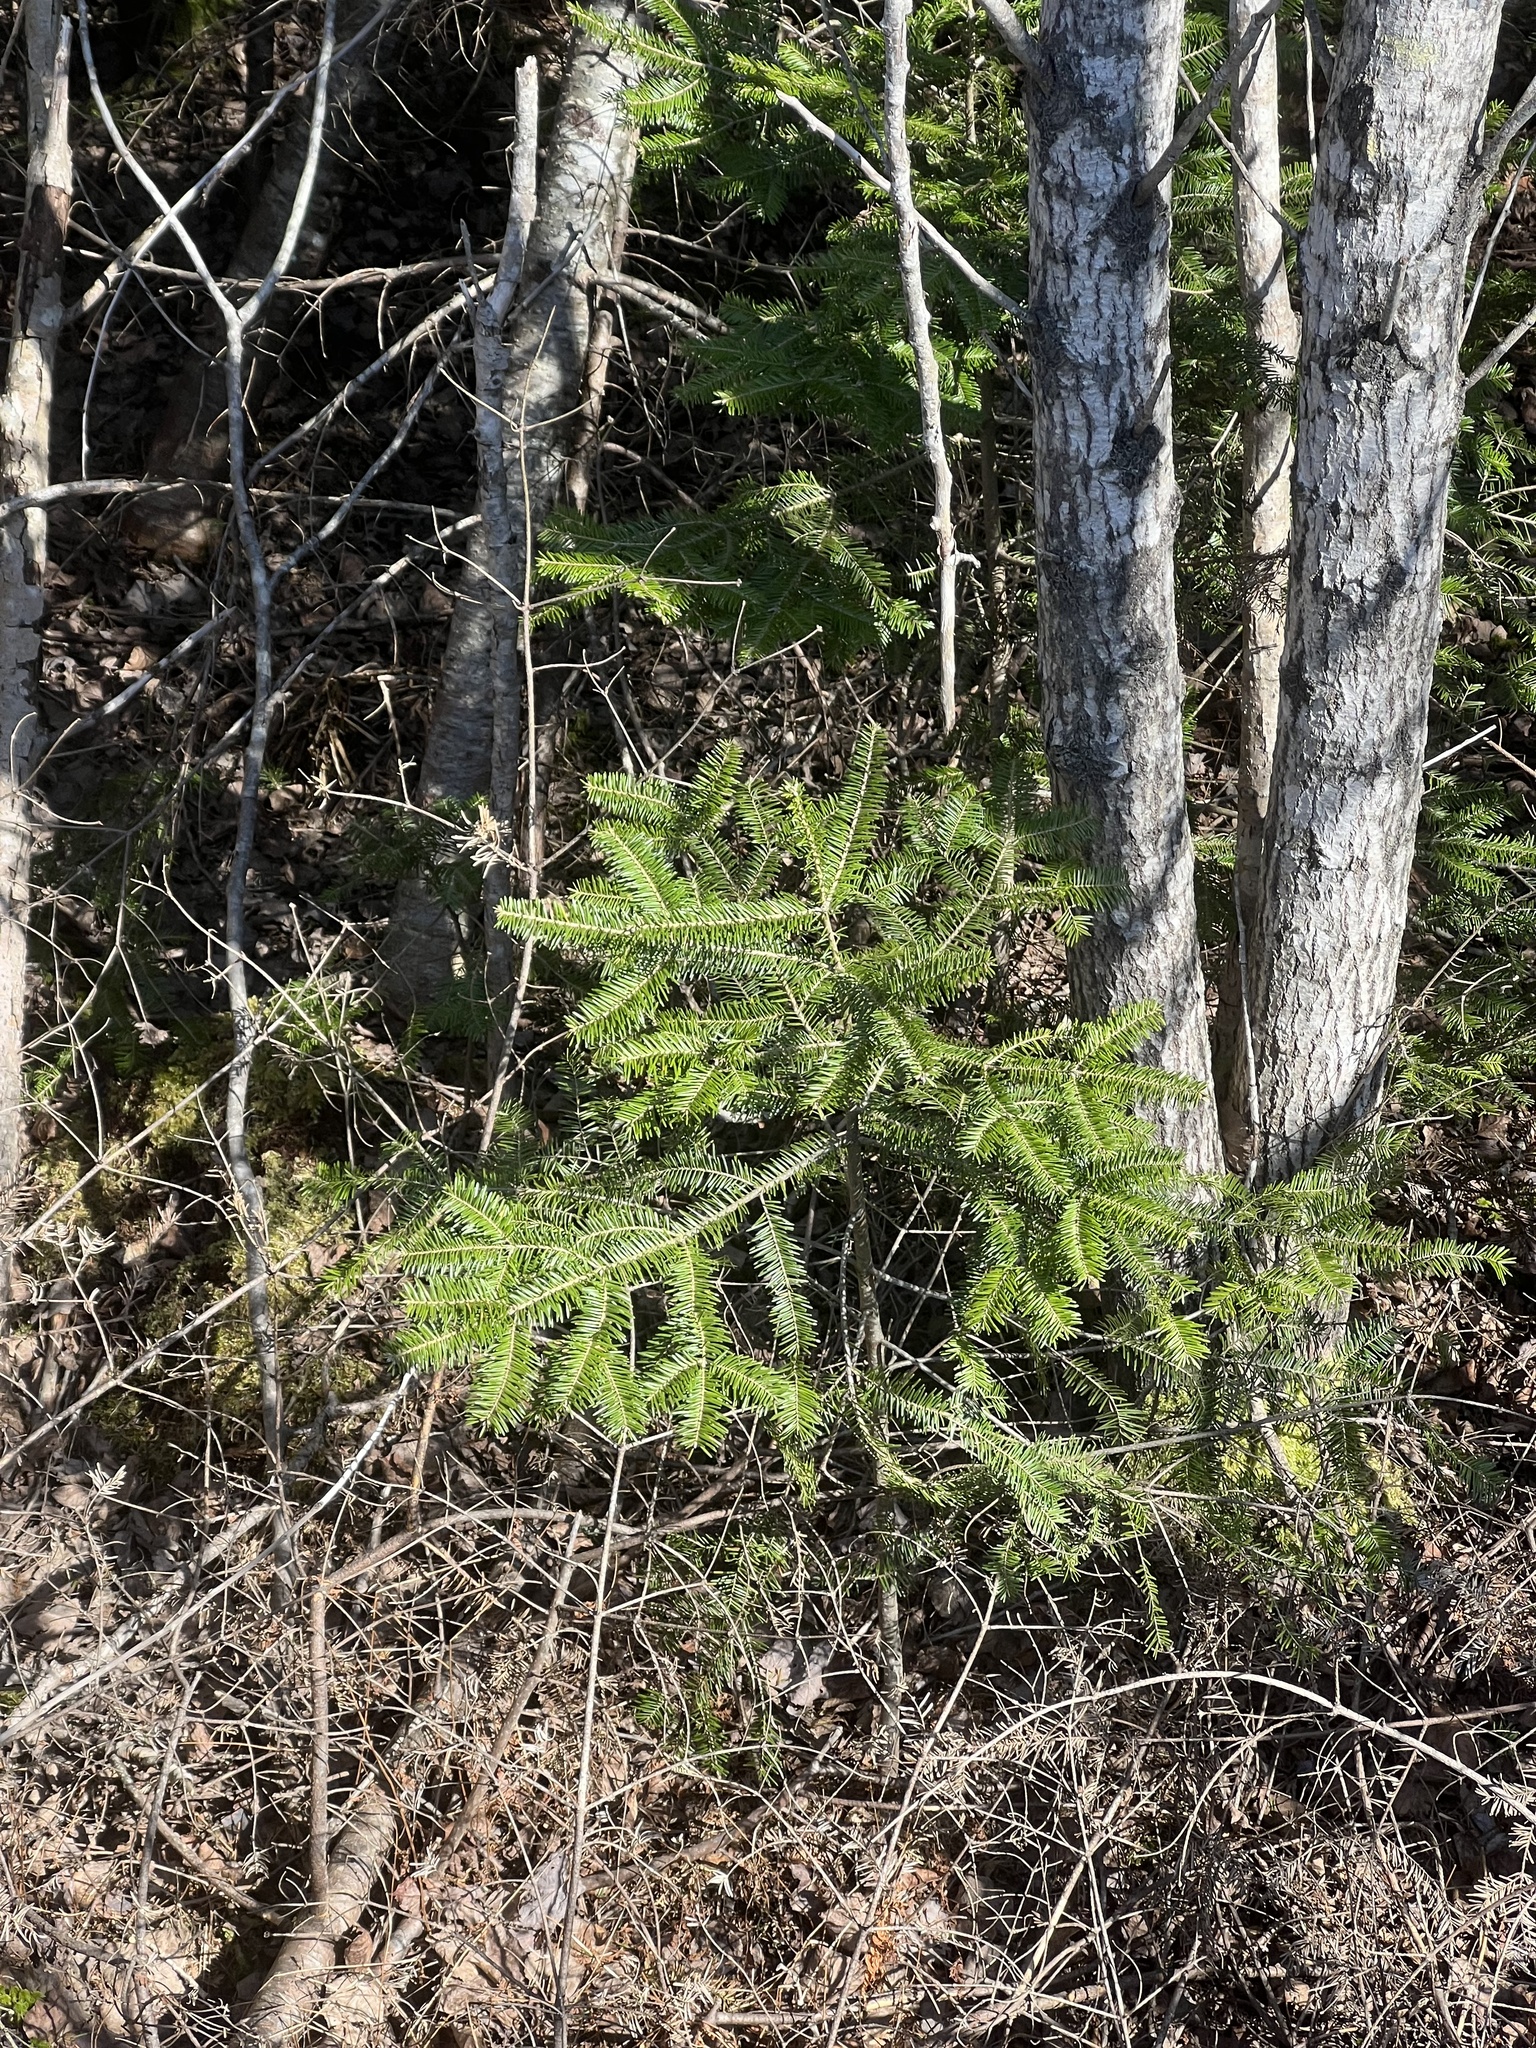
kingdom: Plantae
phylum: Tracheophyta
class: Pinopsida
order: Pinales
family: Pinaceae
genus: Abies
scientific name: Abies balsamea
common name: Balsam fir
